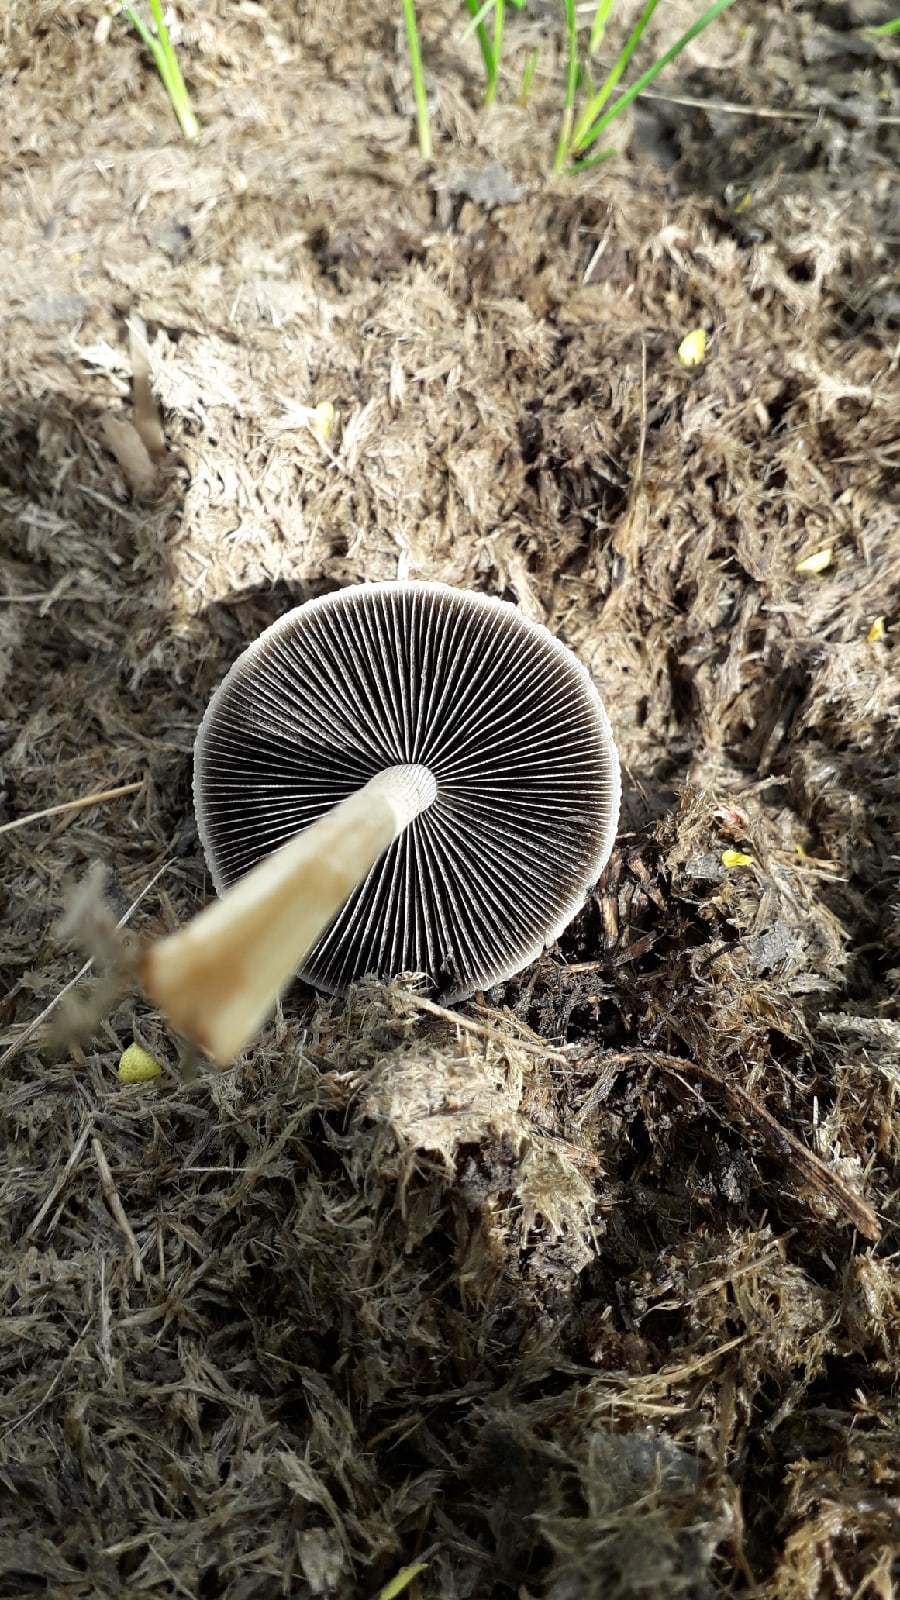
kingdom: Fungi
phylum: Basidiomycota
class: Agaricomycetes
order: Agaricales
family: Bolbitiaceae
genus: Panaeolus
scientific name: Panaeolus antillarum
